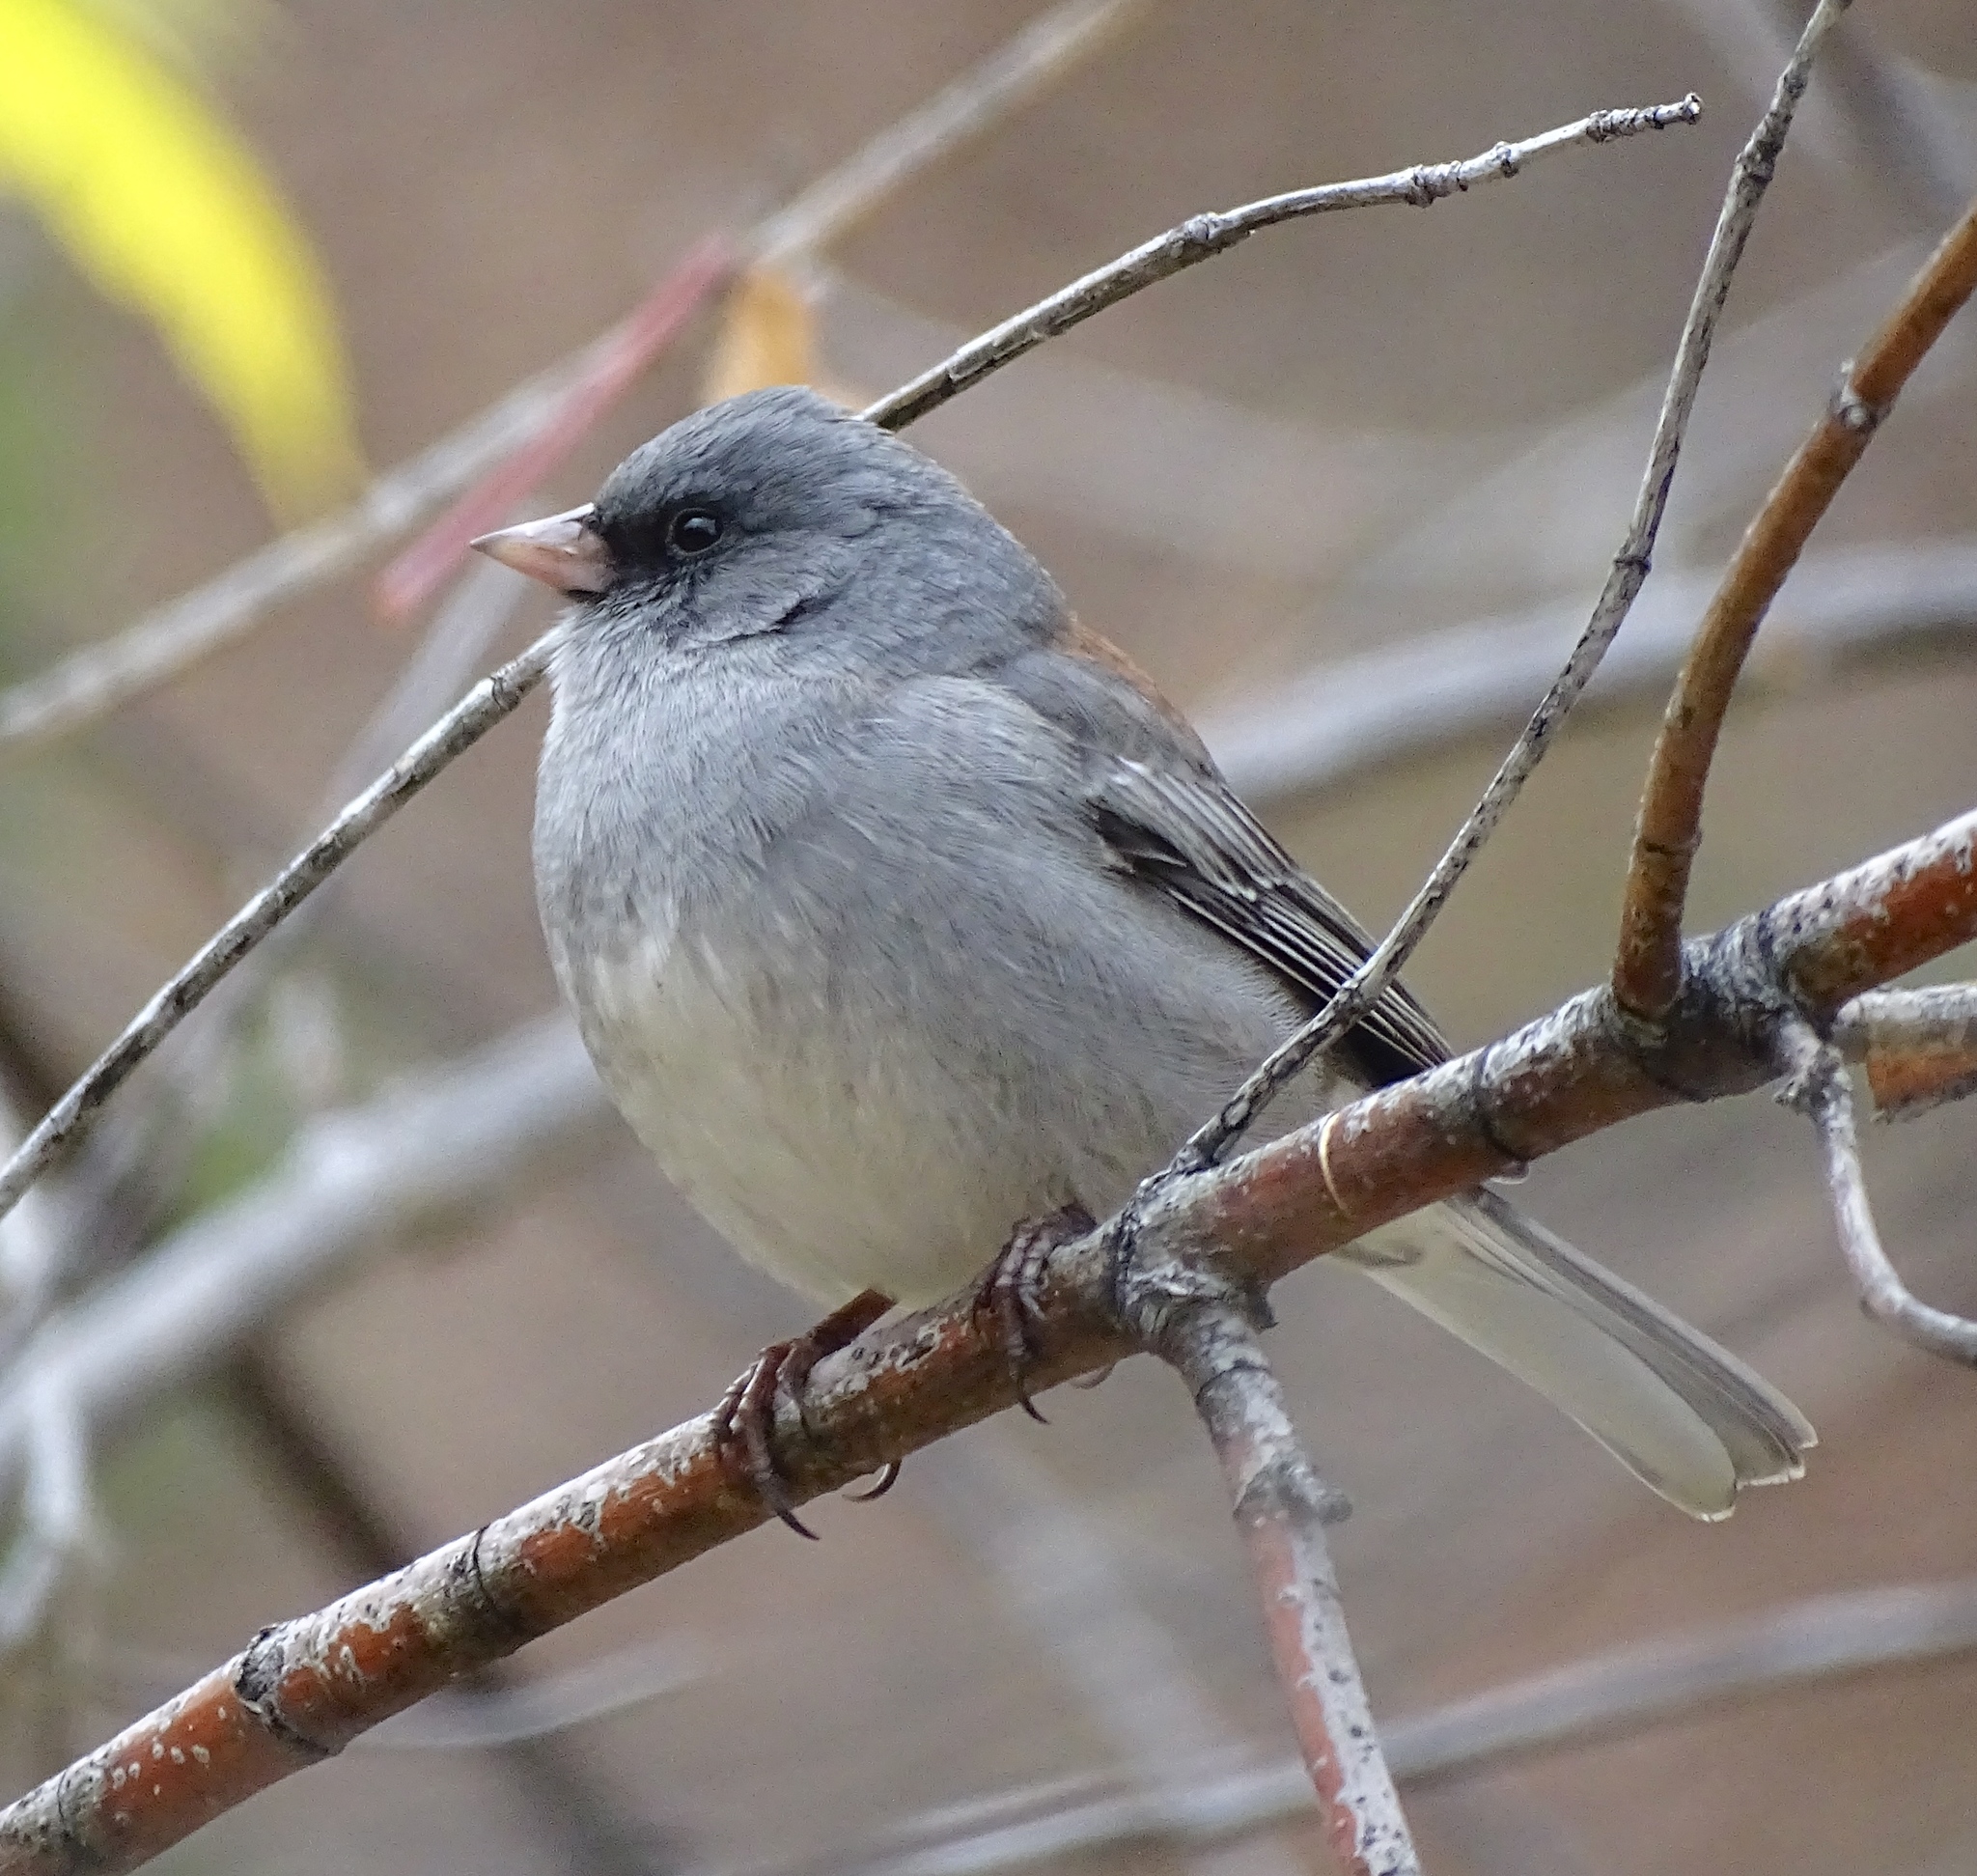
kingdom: Animalia
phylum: Chordata
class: Aves
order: Passeriformes
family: Passerellidae
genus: Junco
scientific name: Junco hyemalis
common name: Dark-eyed junco
